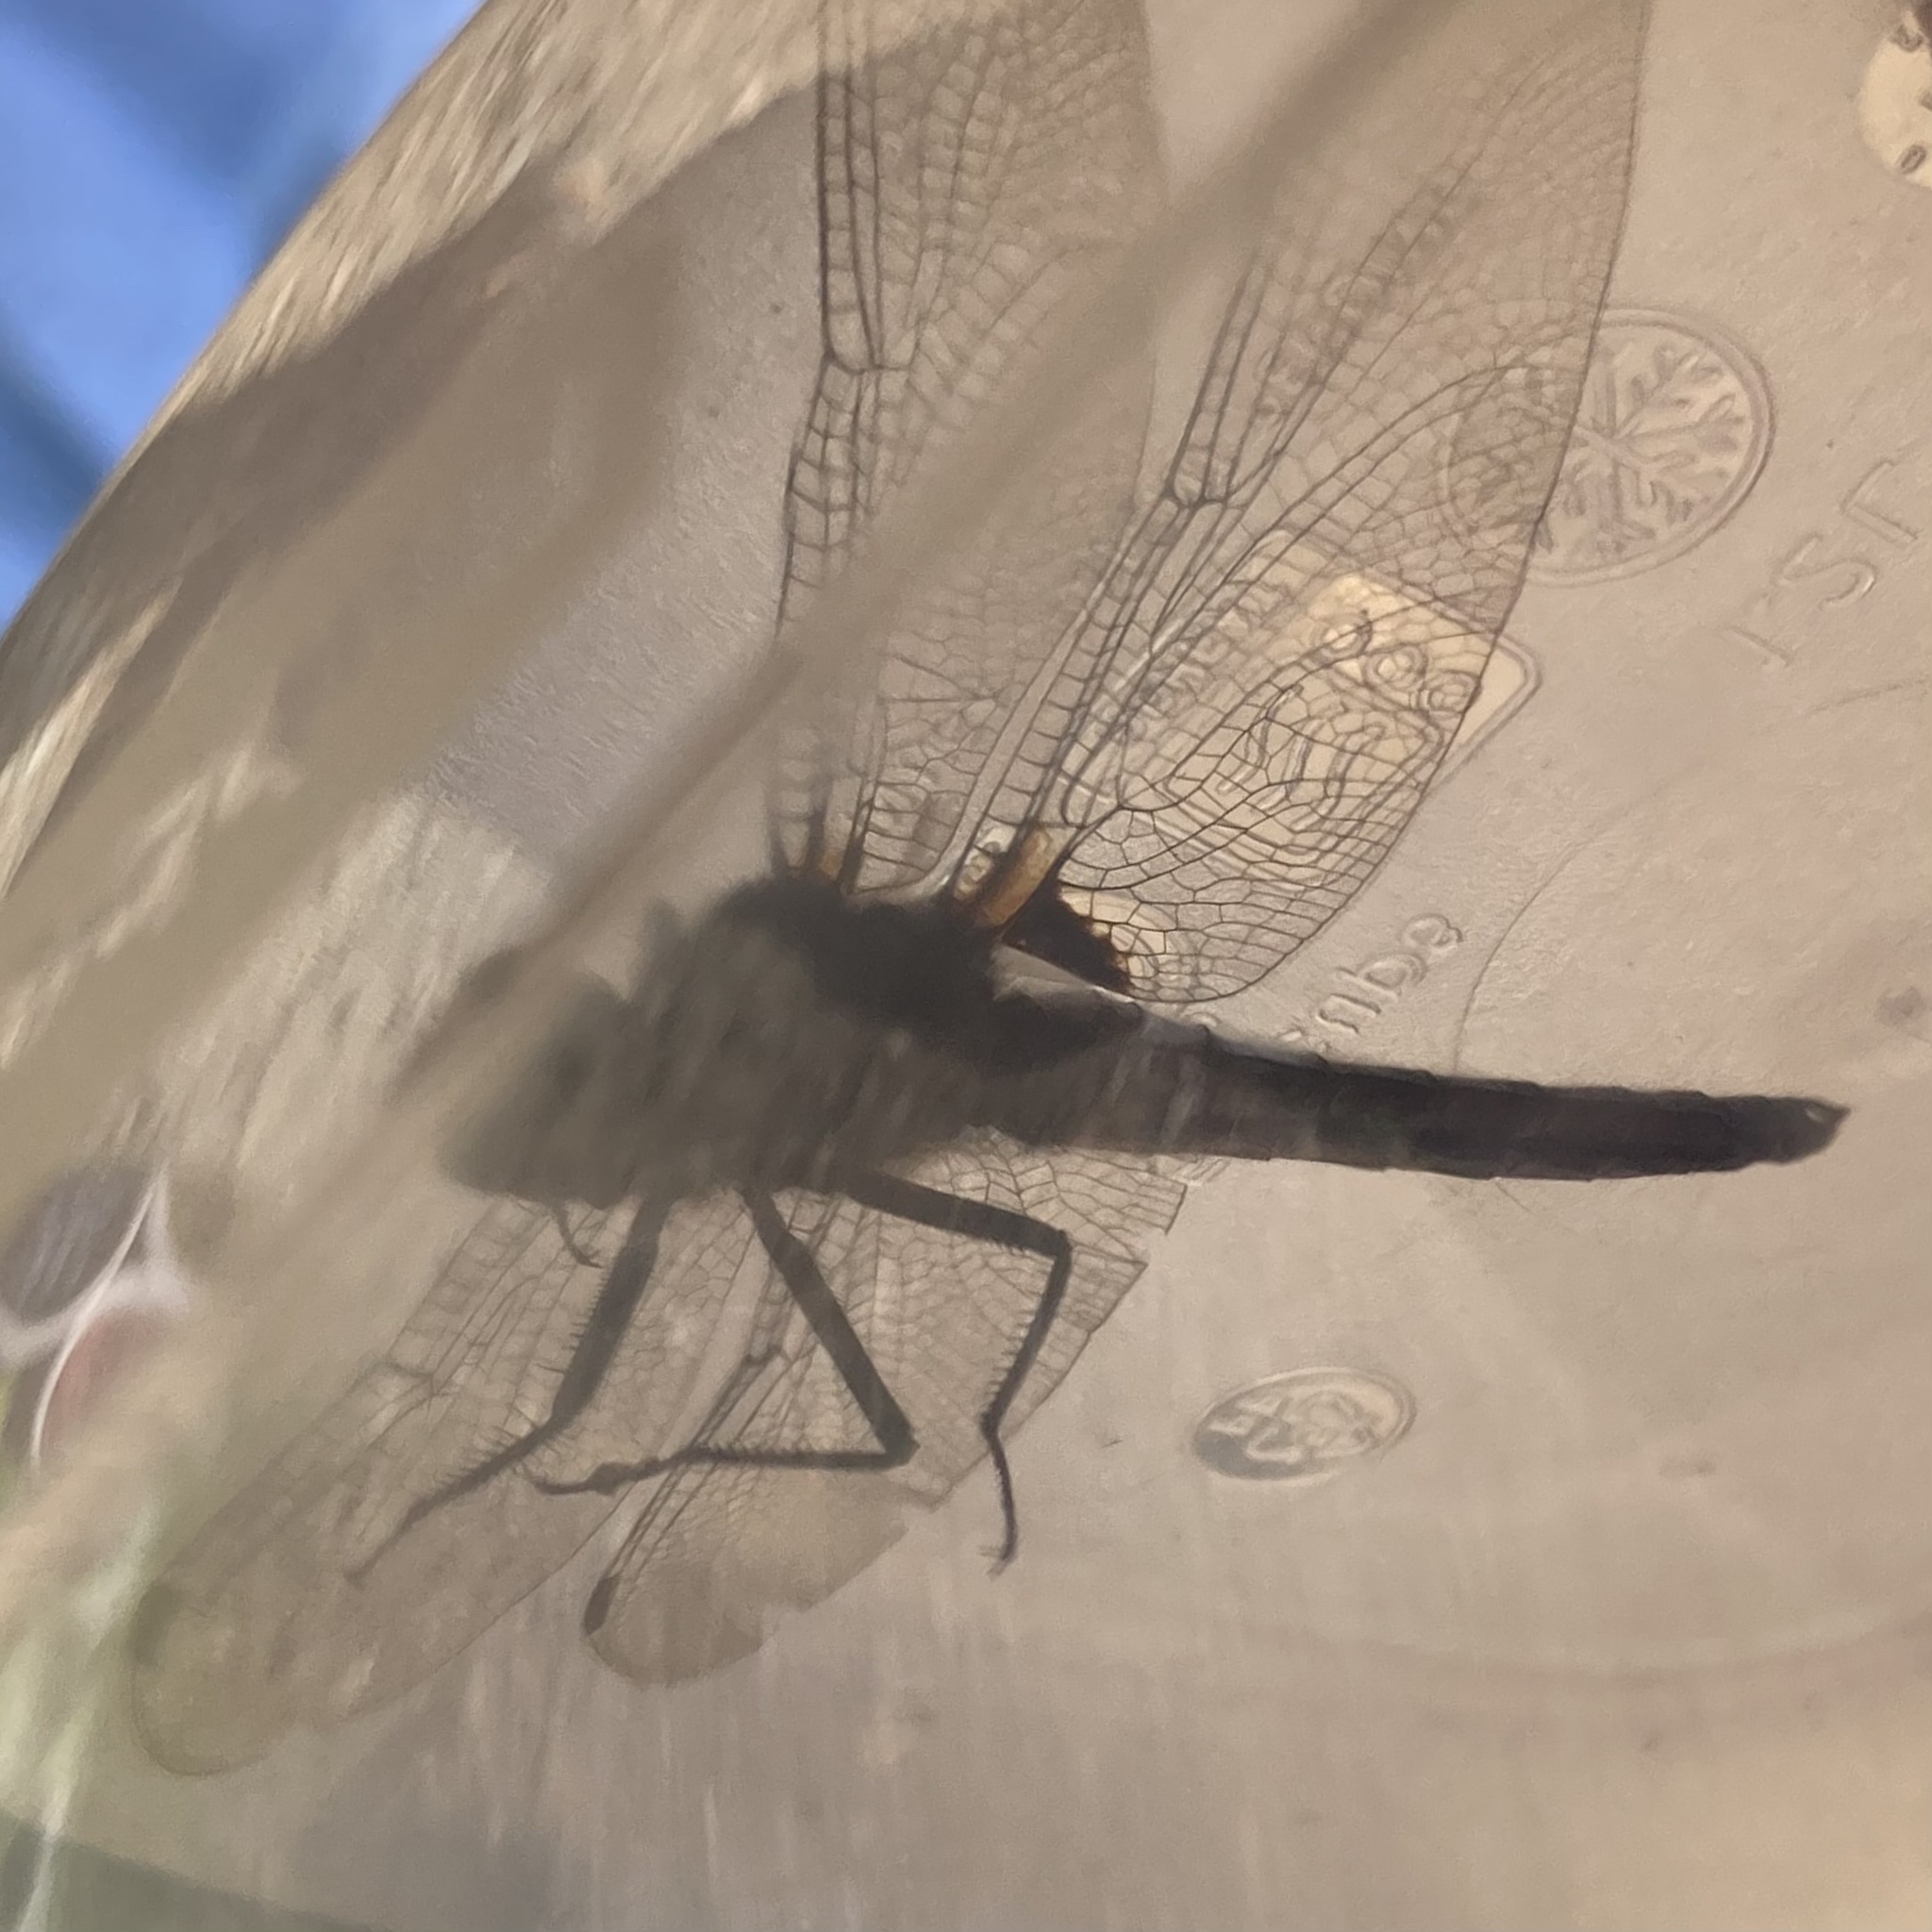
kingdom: Animalia
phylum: Arthropoda
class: Insecta
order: Odonata
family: Libellulidae
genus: Ladona
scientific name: Ladona julia
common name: Chalk-fronted corporal
